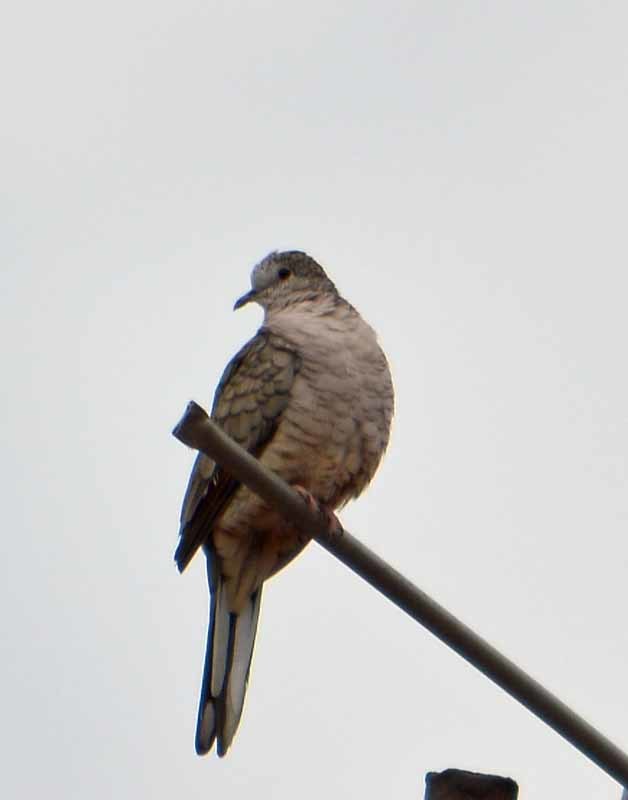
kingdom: Animalia
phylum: Chordata
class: Aves
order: Columbiformes
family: Columbidae
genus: Columbina
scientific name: Columbina inca
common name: Inca dove
